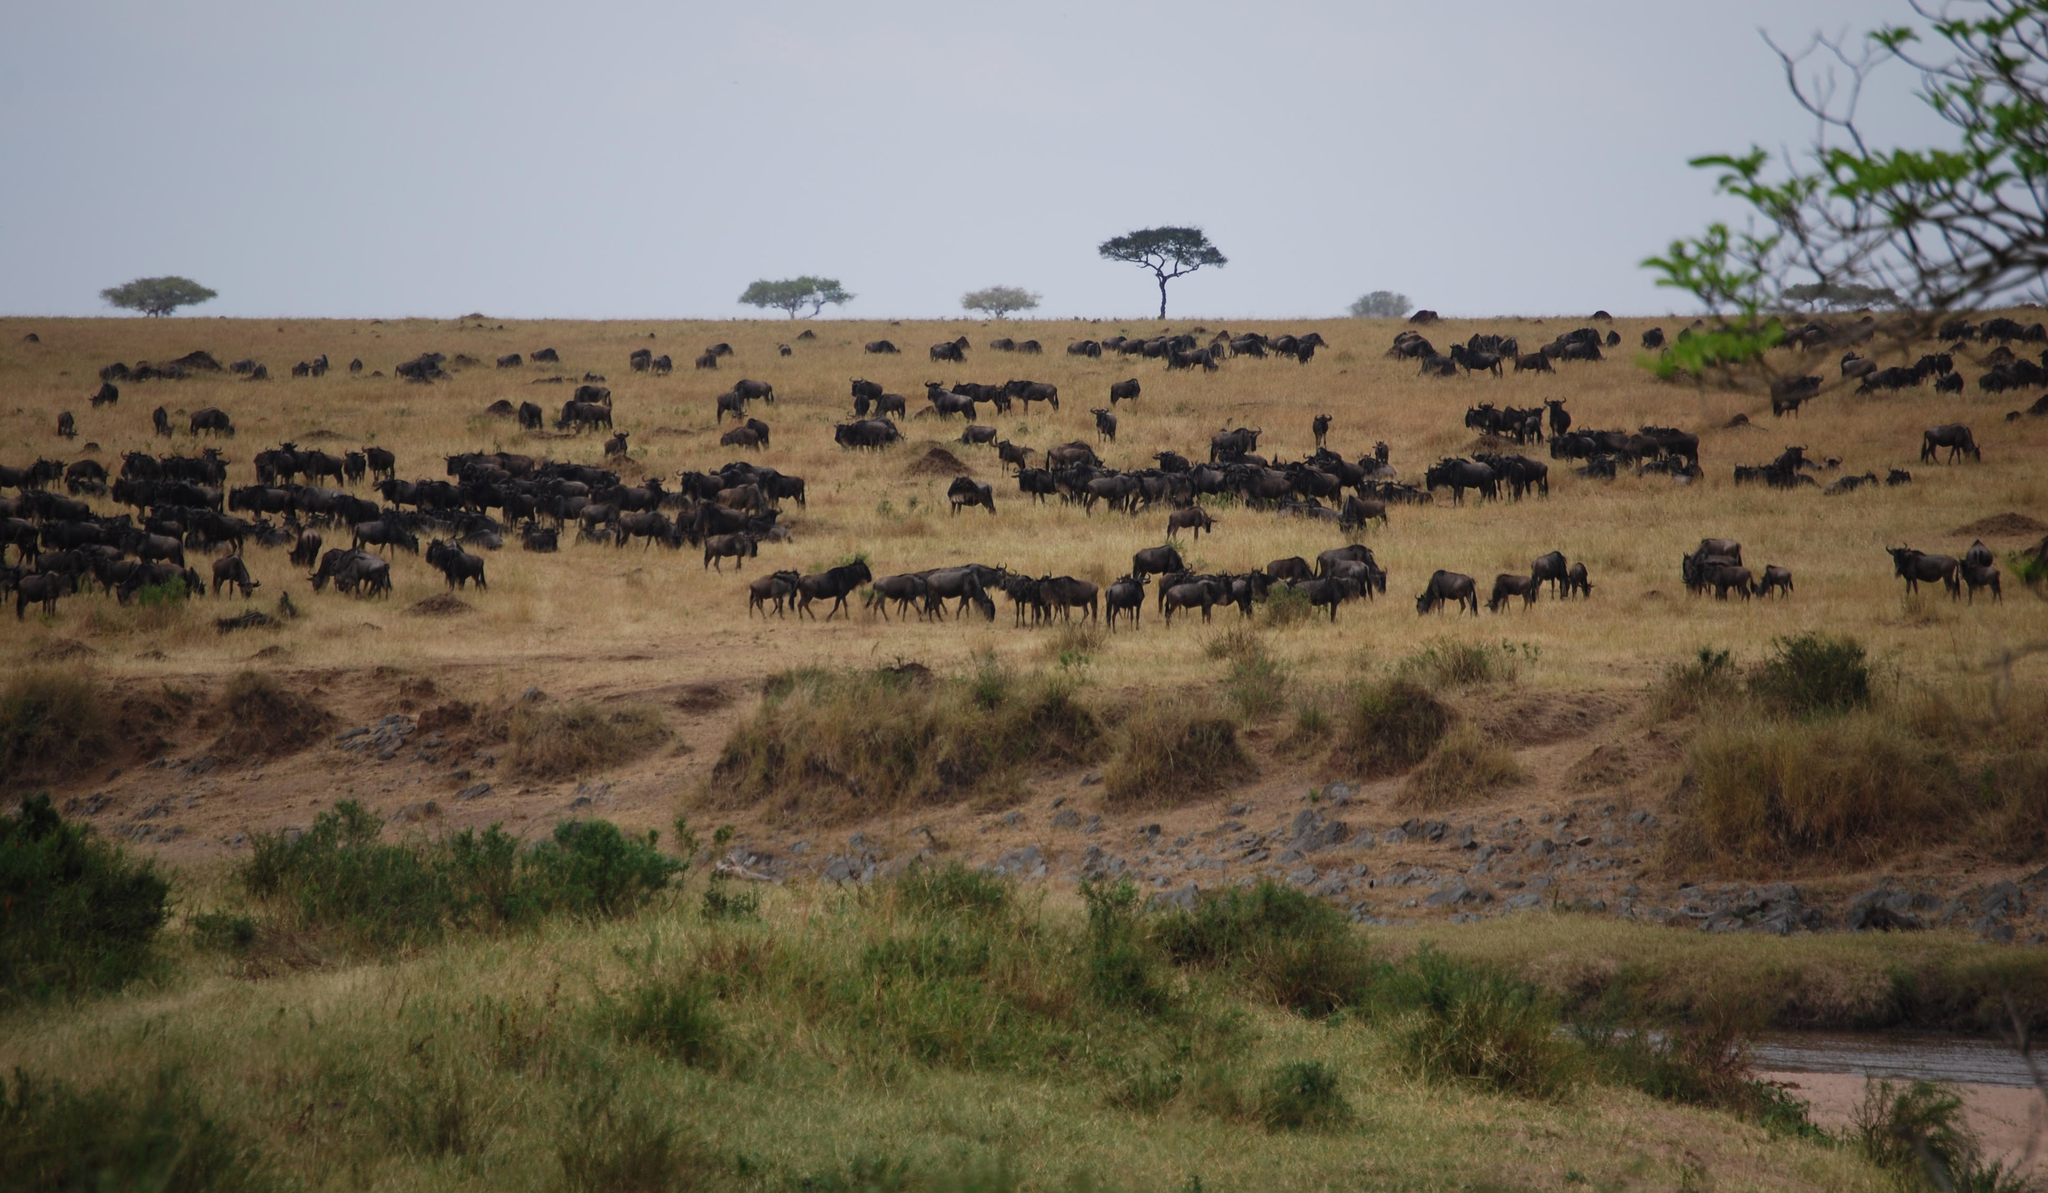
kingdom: Animalia
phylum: Chordata
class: Mammalia
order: Artiodactyla
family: Bovidae
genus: Connochaetes
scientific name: Connochaetes taurinus
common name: Blue wildebeest
